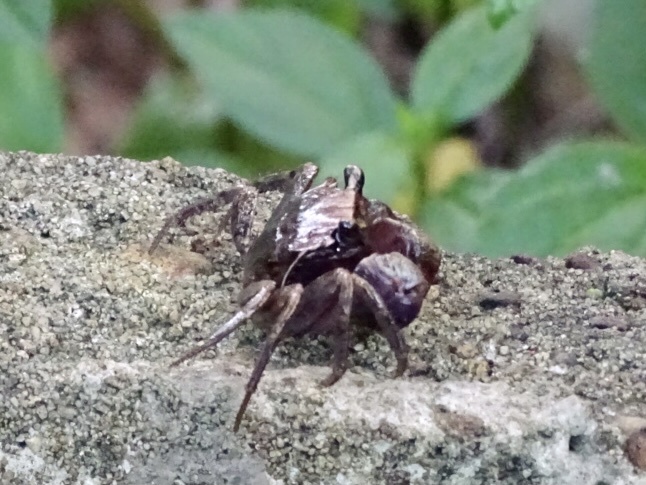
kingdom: Animalia
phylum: Arthropoda
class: Malacostraca
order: Decapoda
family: Sesarmidae
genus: Orisarma
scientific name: Orisarma patshuni
